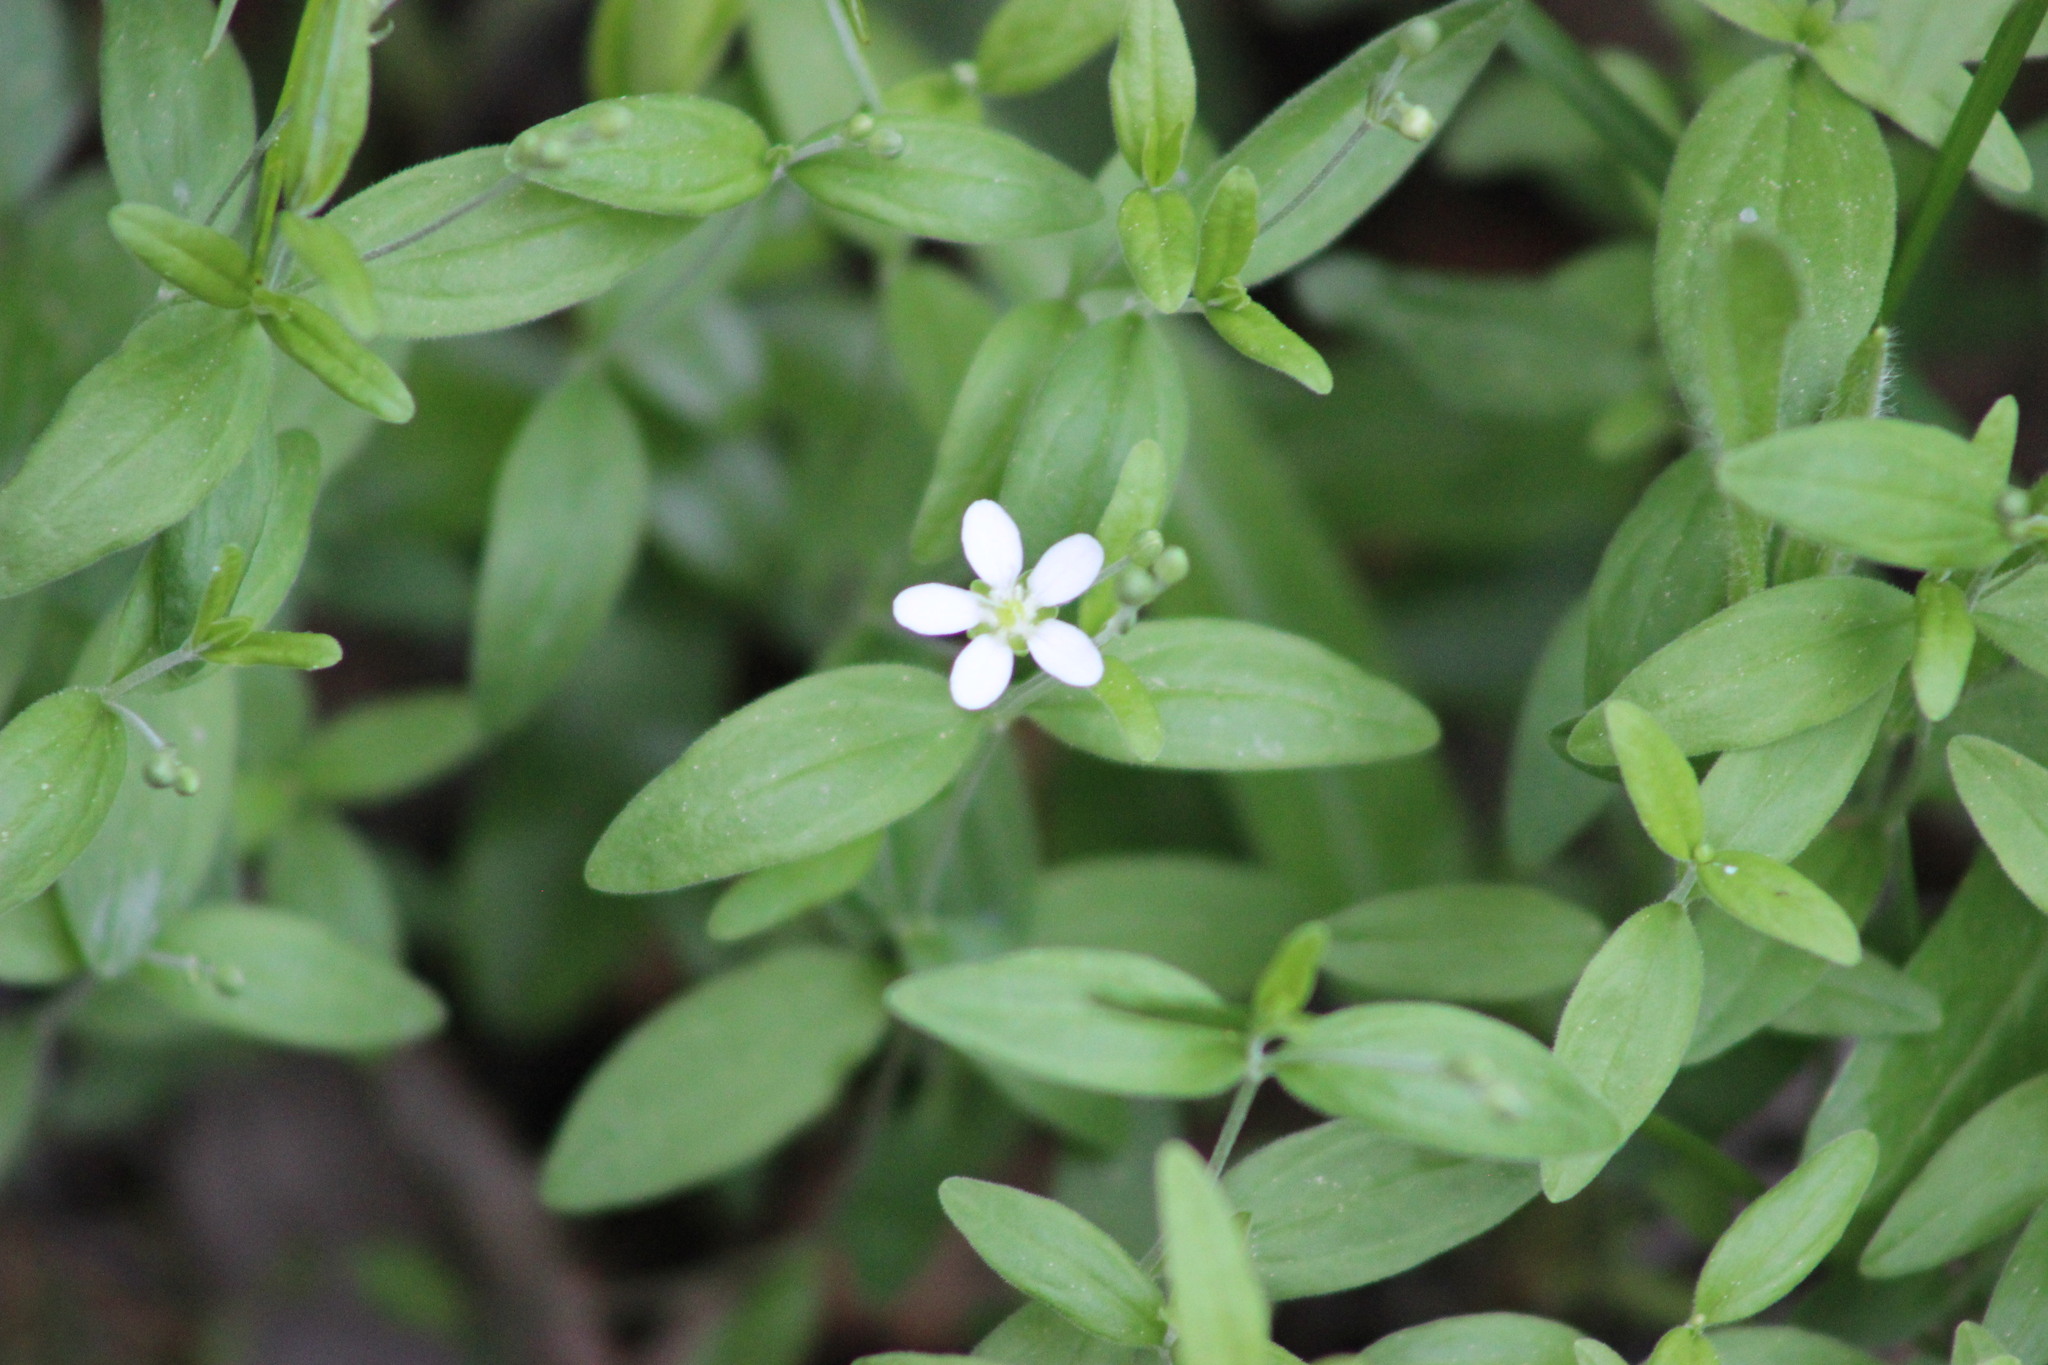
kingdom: Plantae
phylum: Tracheophyta
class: Magnoliopsida
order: Caryophyllales
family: Caryophyllaceae
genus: Moehringia
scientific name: Moehringia lateriflora
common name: Blunt-leaved sandwort
